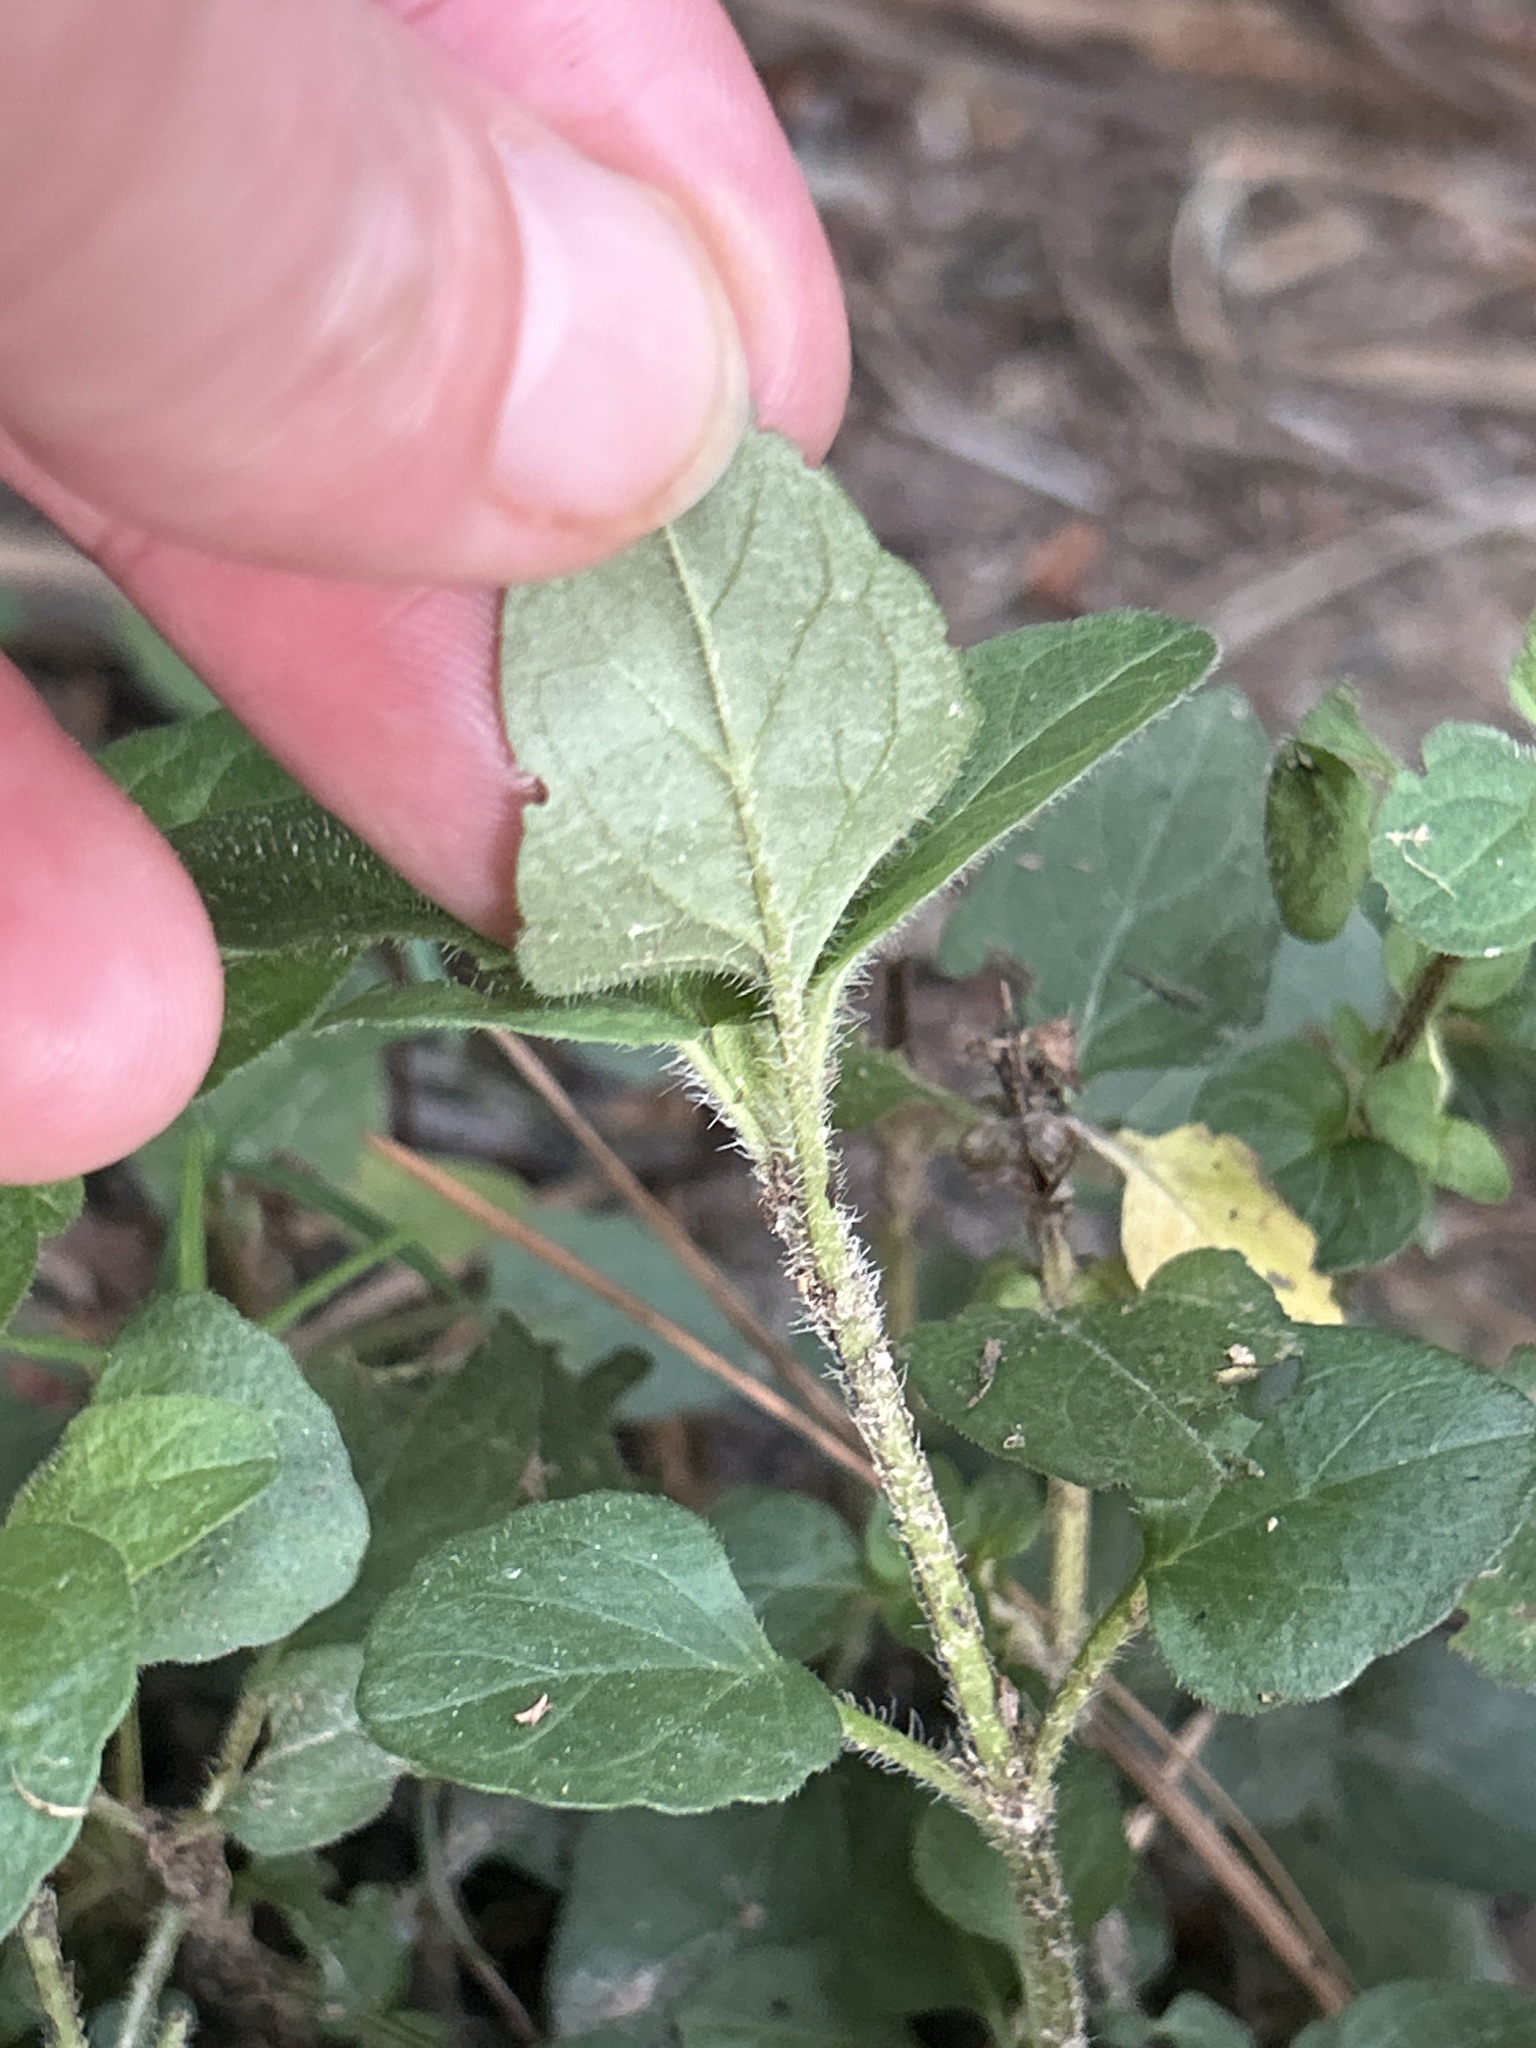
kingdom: Plantae
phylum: Tracheophyta
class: Magnoliopsida
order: Lamiales
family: Lamiaceae
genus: Prunella
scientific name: Prunella vulgaris
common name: Heal-all
